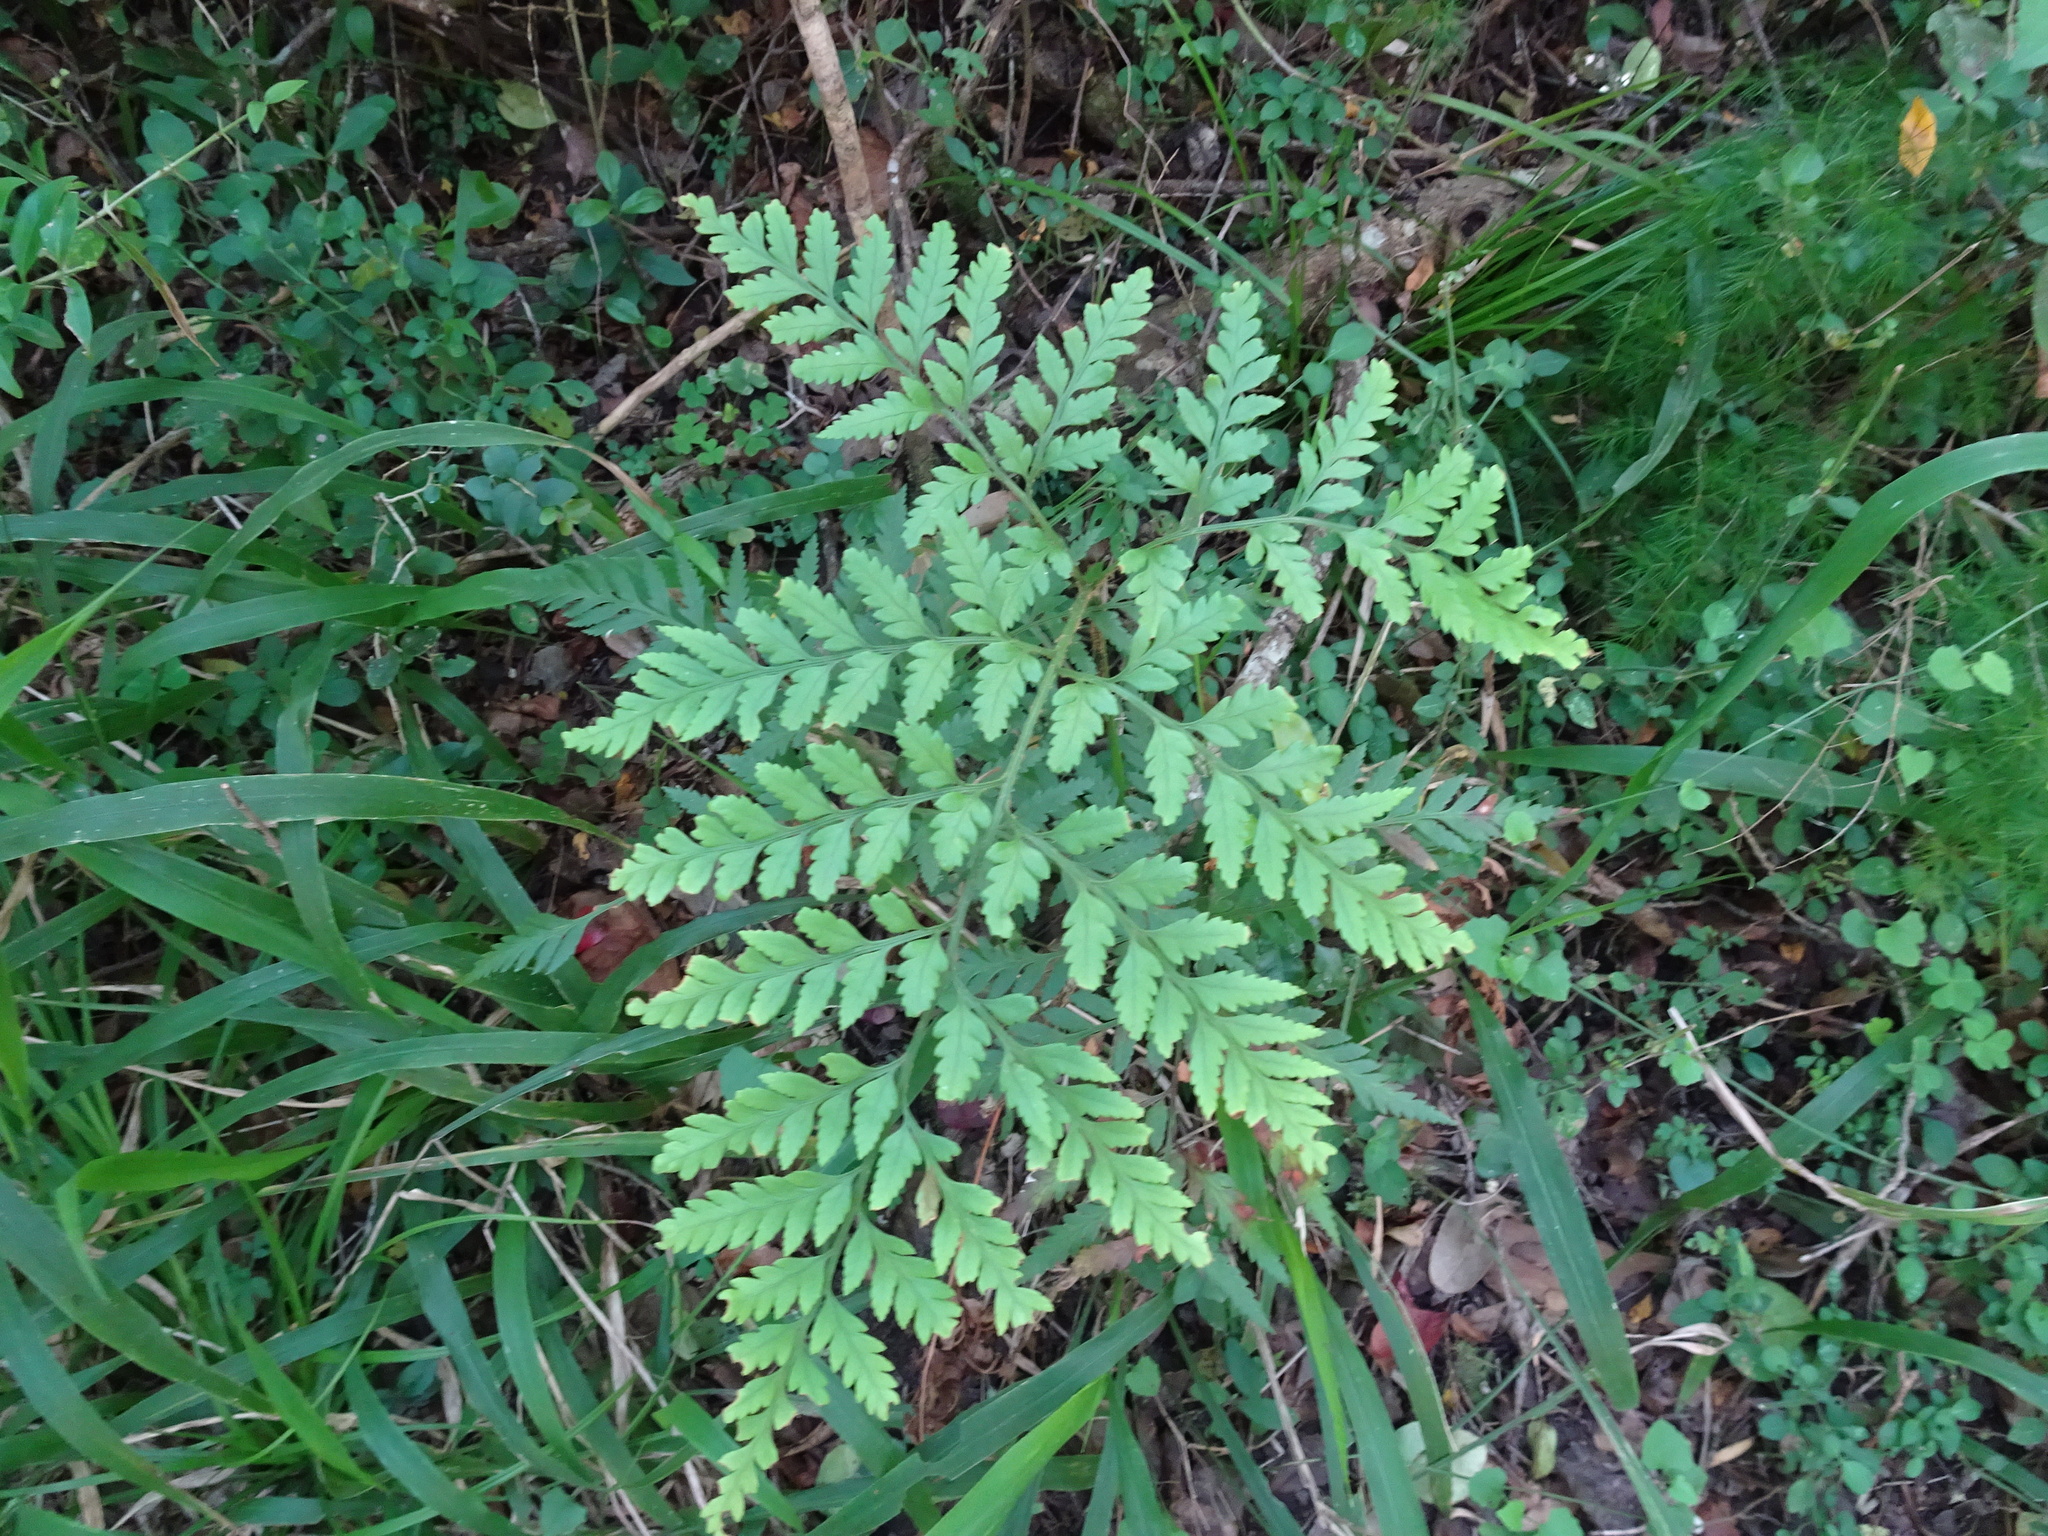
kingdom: Plantae
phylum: Tracheophyta
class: Polypodiopsida
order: Polypodiales
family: Dryopteridaceae
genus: Rumohra
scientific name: Rumohra adiantiformis
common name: Leather fern
